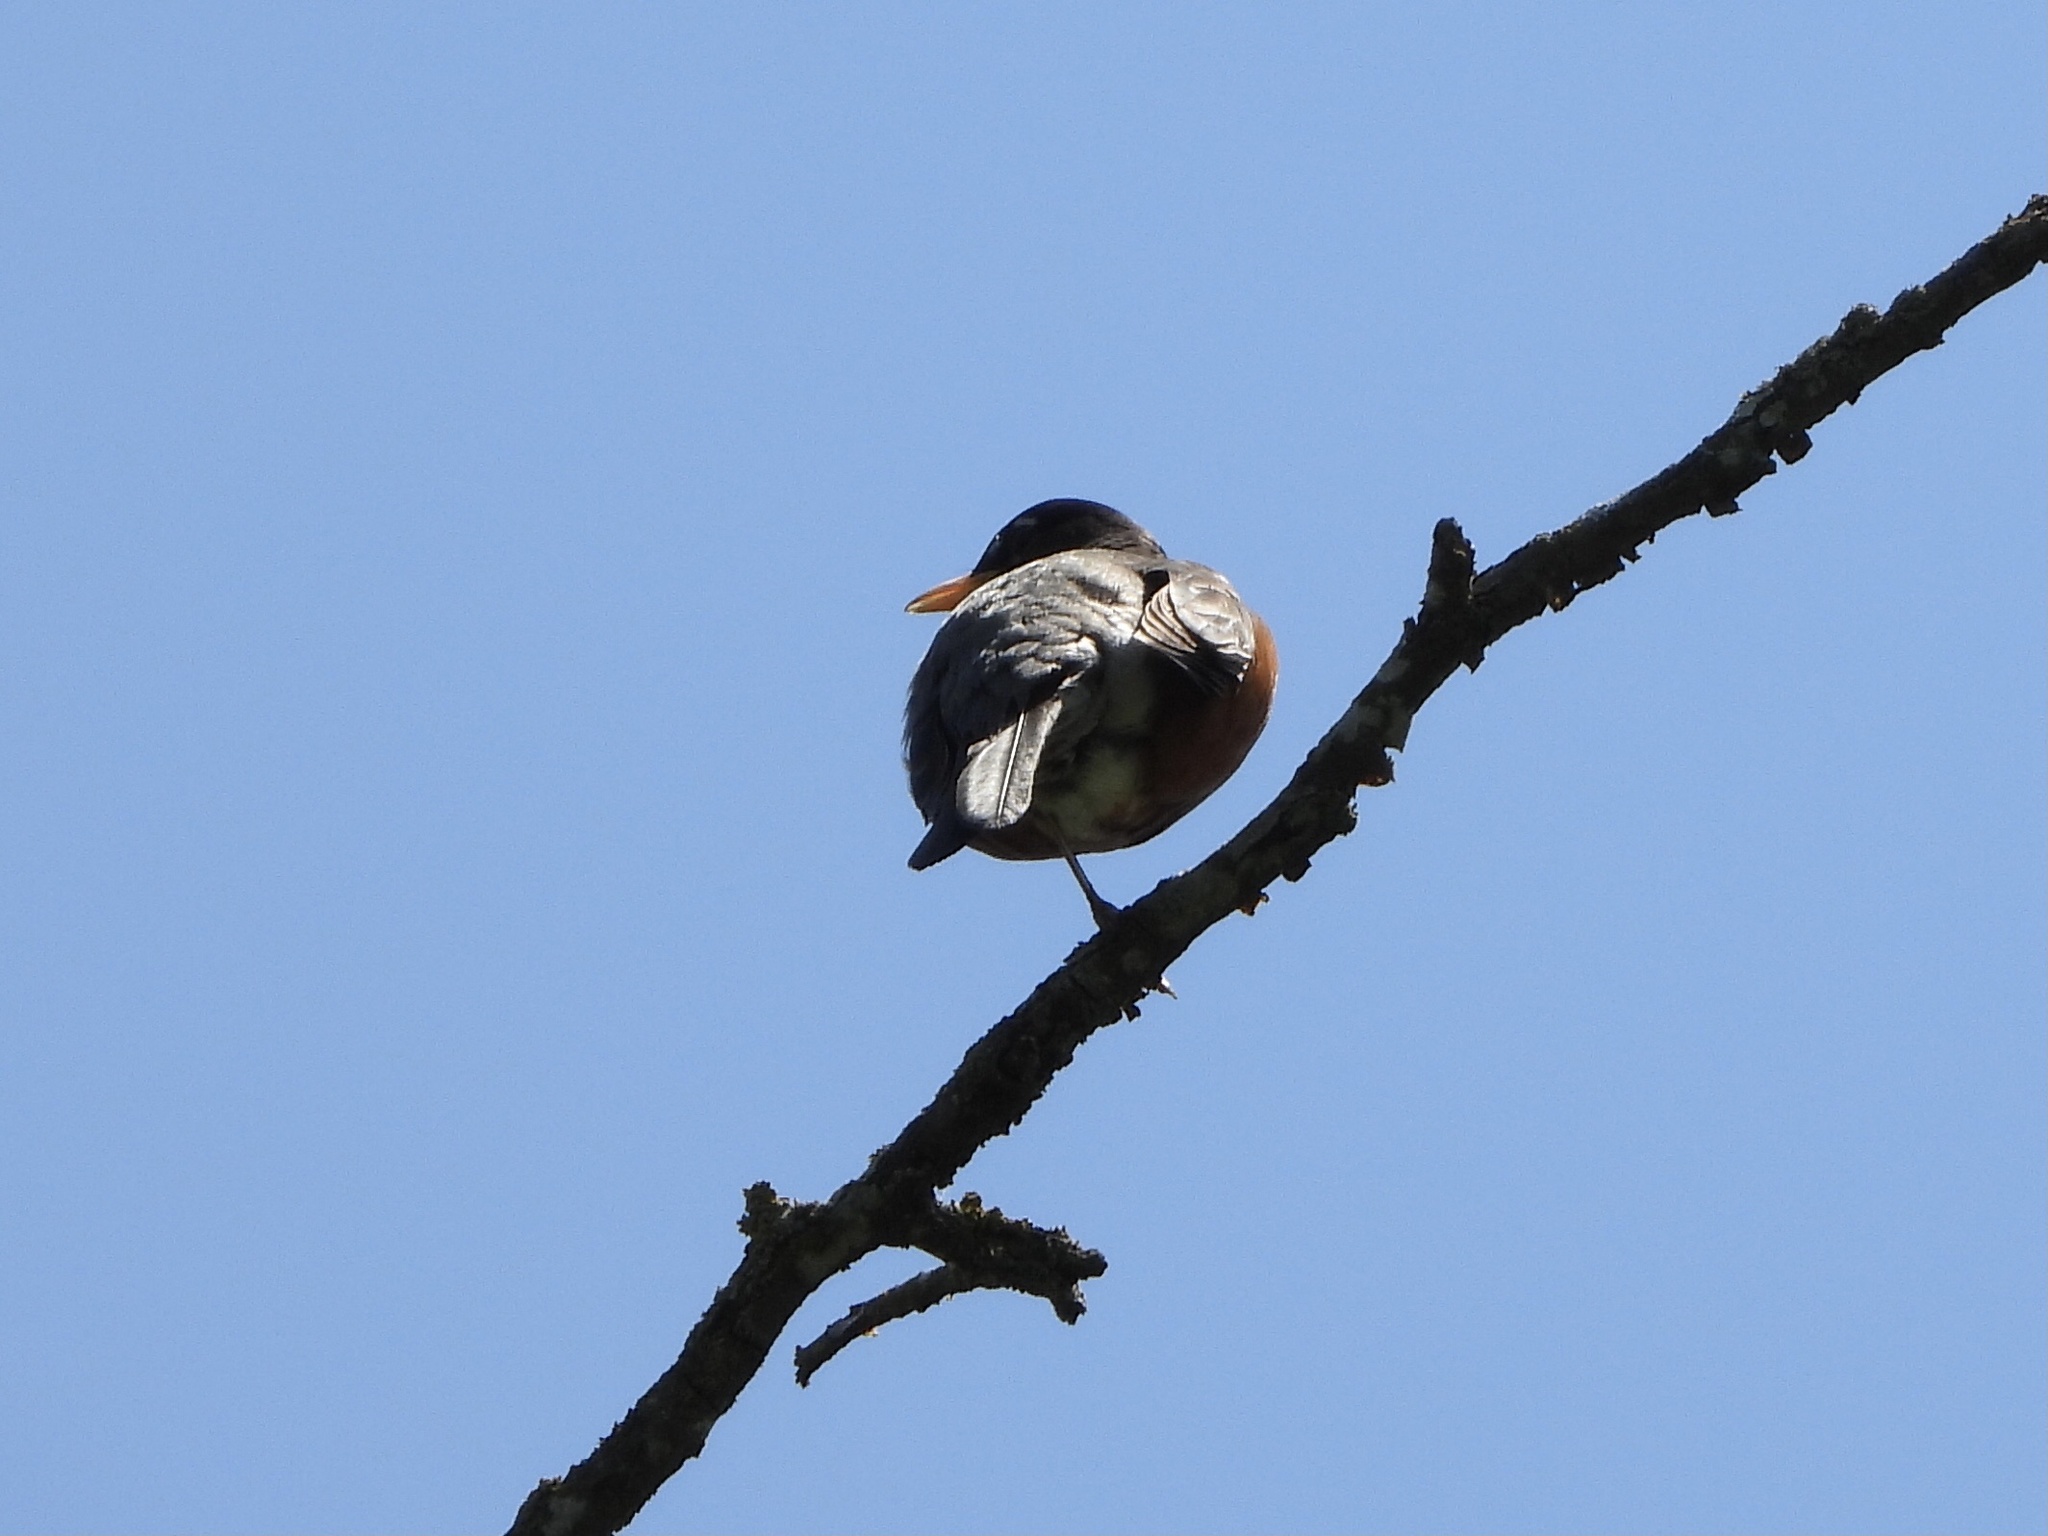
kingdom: Animalia
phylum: Chordata
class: Aves
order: Passeriformes
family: Turdidae
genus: Turdus
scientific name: Turdus migratorius
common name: American robin
